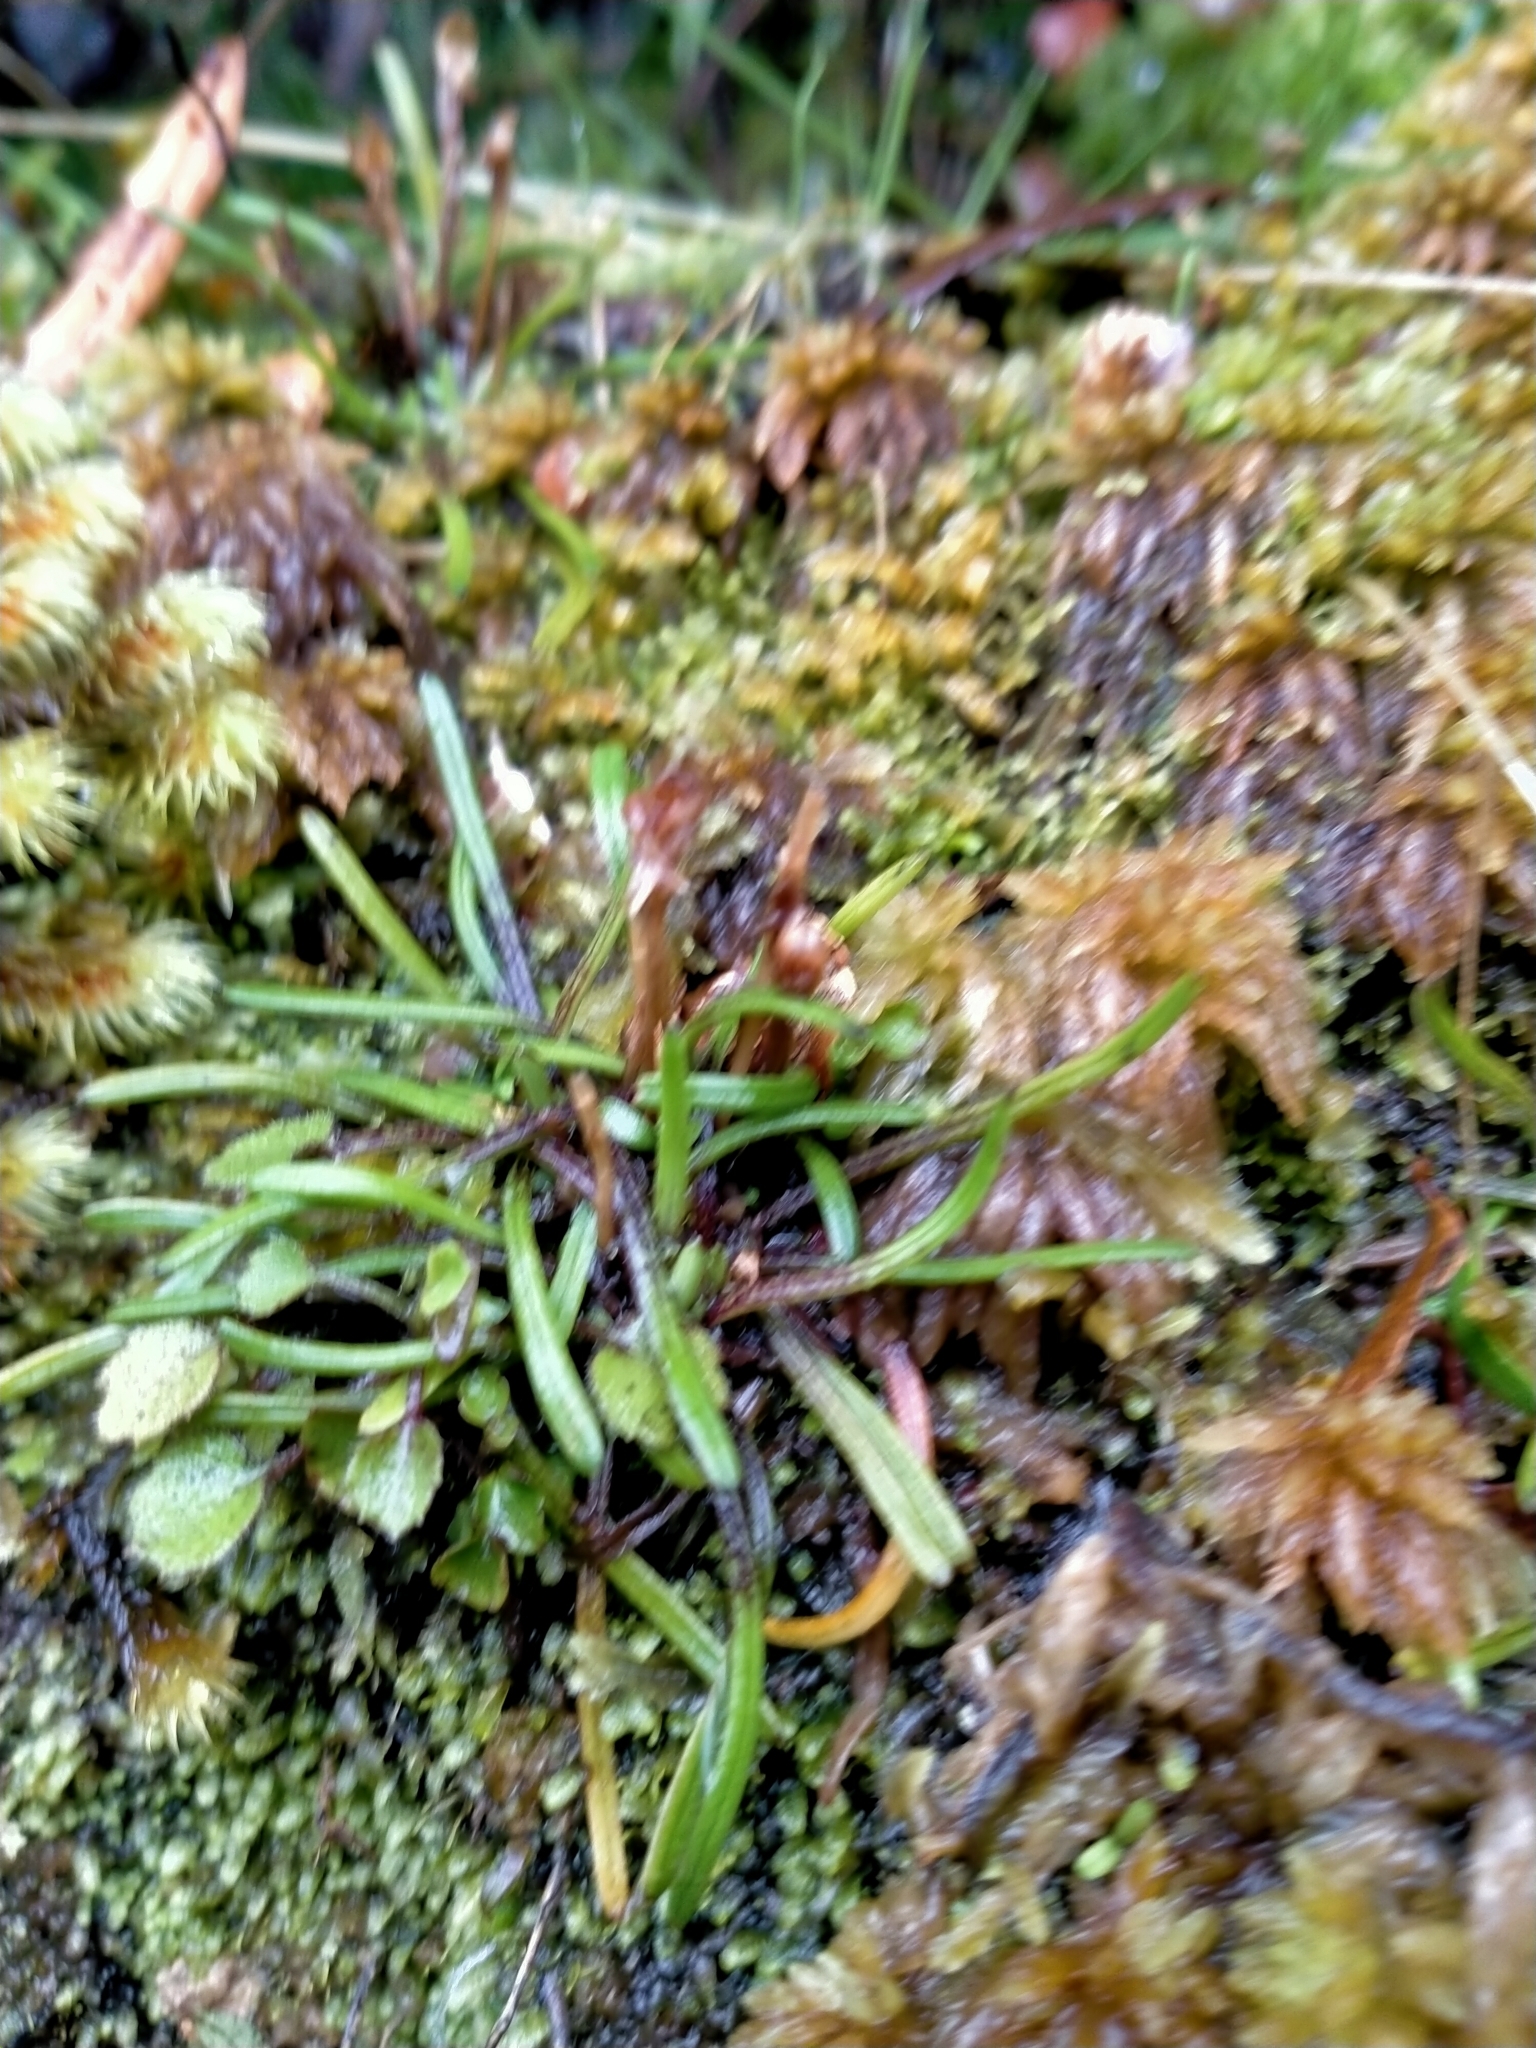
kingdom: Plantae
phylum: Tracheophyta
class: Magnoliopsida
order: Asterales
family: Asteraceae
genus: Abrotanella
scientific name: Abrotanella linearis
